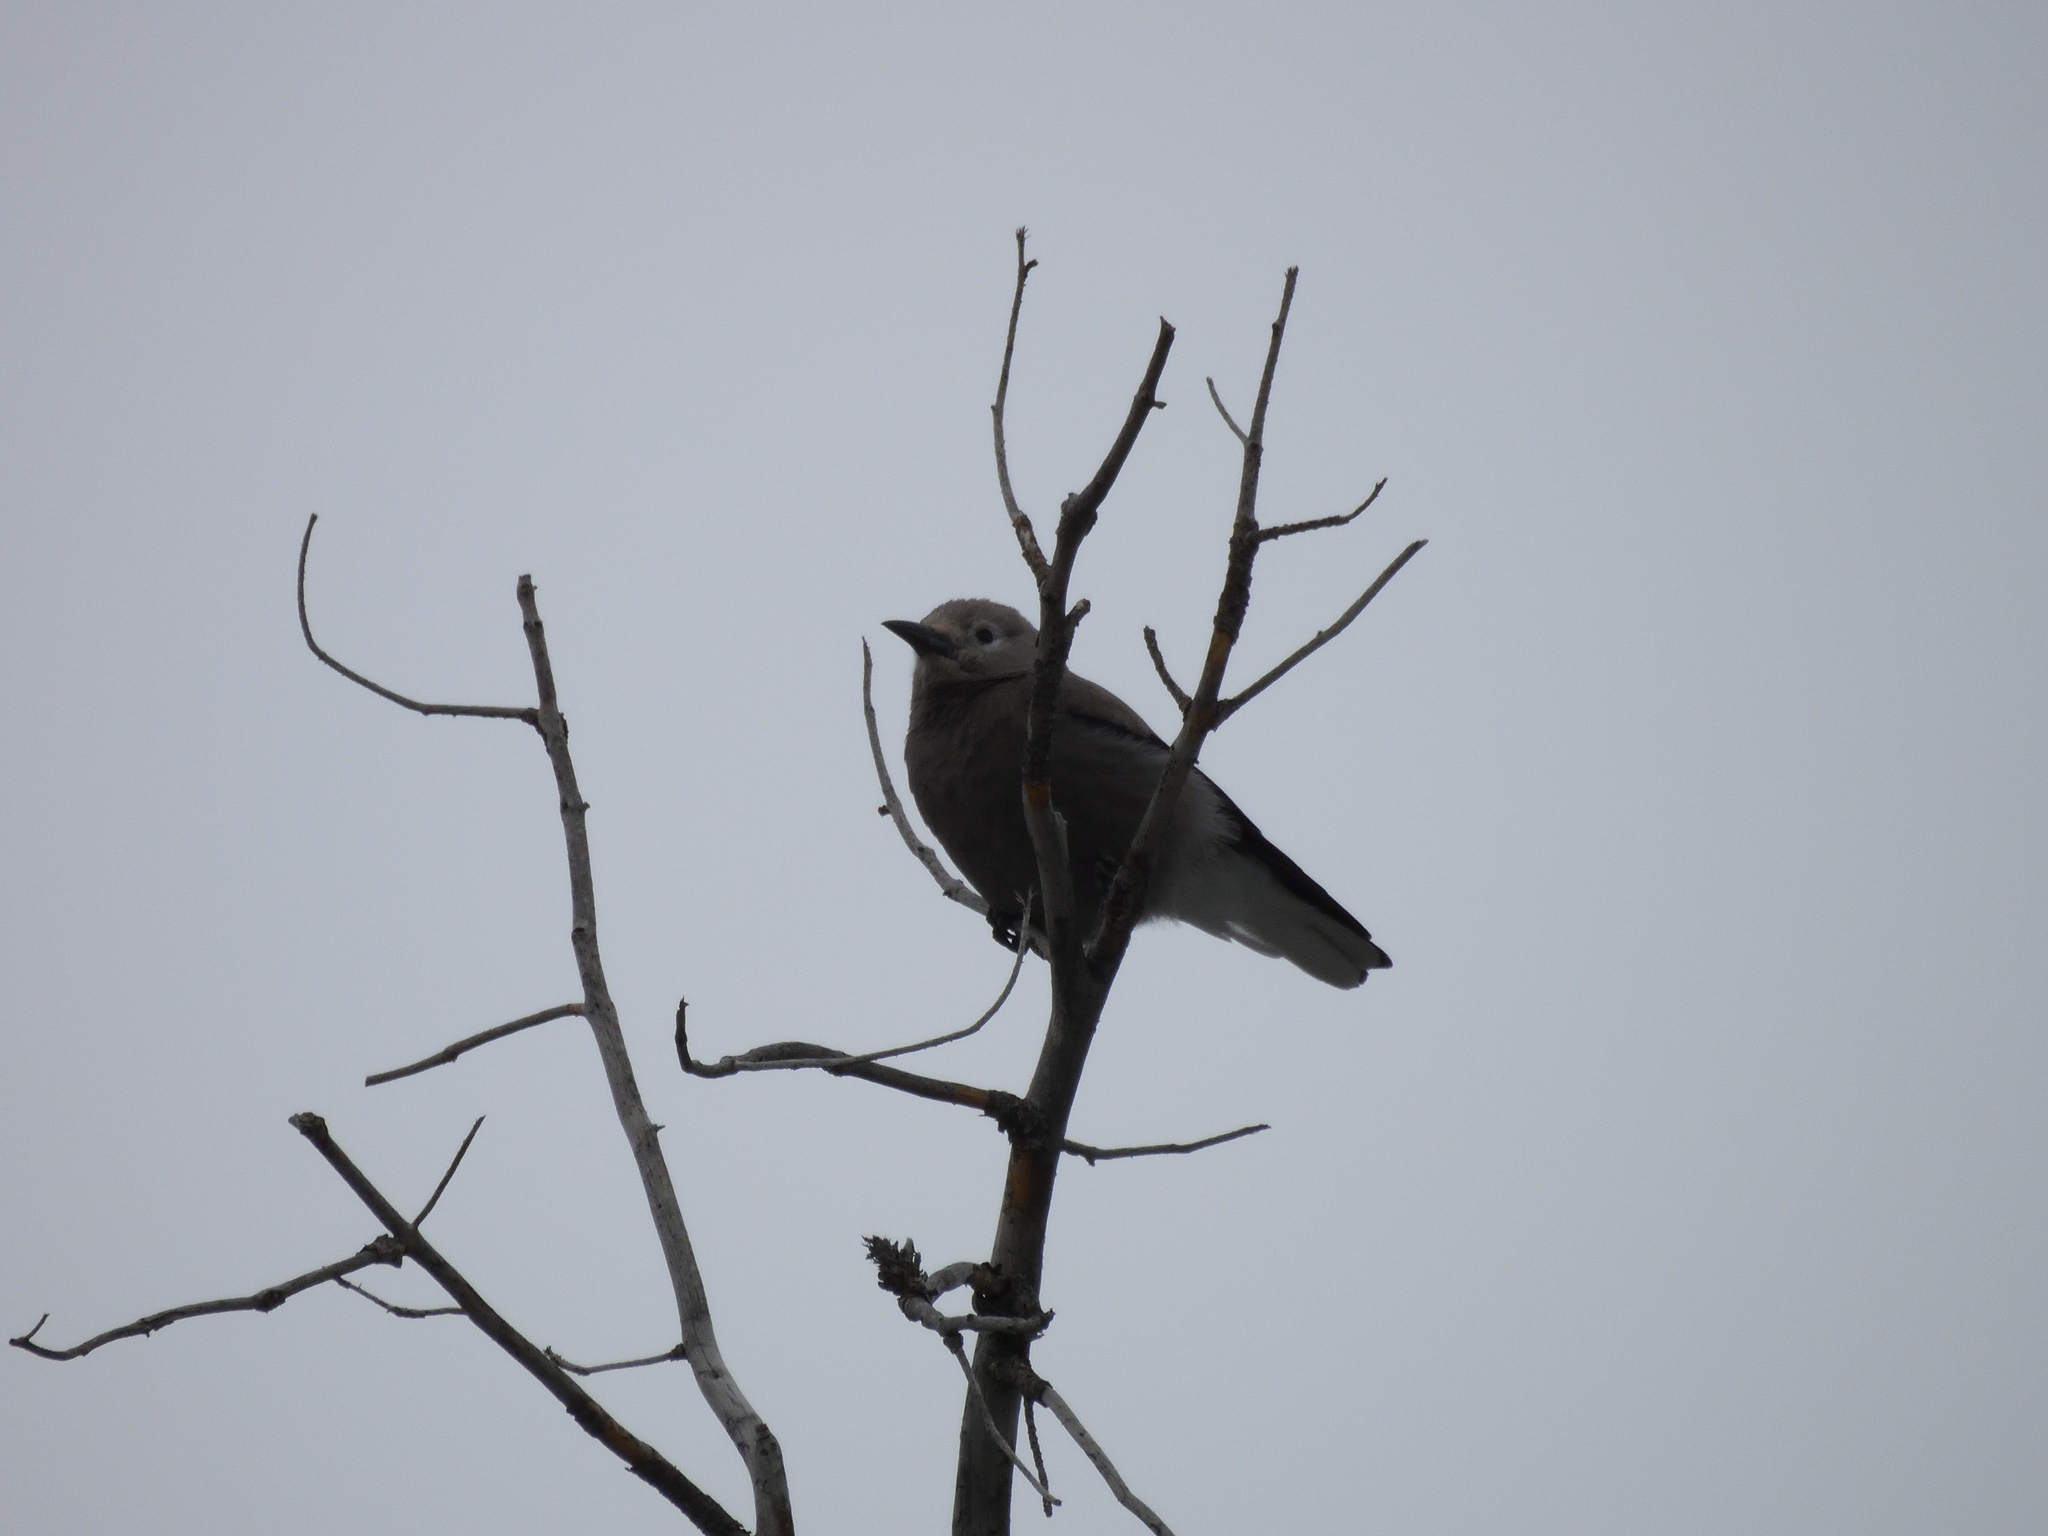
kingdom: Animalia
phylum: Chordata
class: Aves
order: Passeriformes
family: Corvidae
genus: Nucifraga
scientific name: Nucifraga columbiana
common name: Clark's nutcracker
